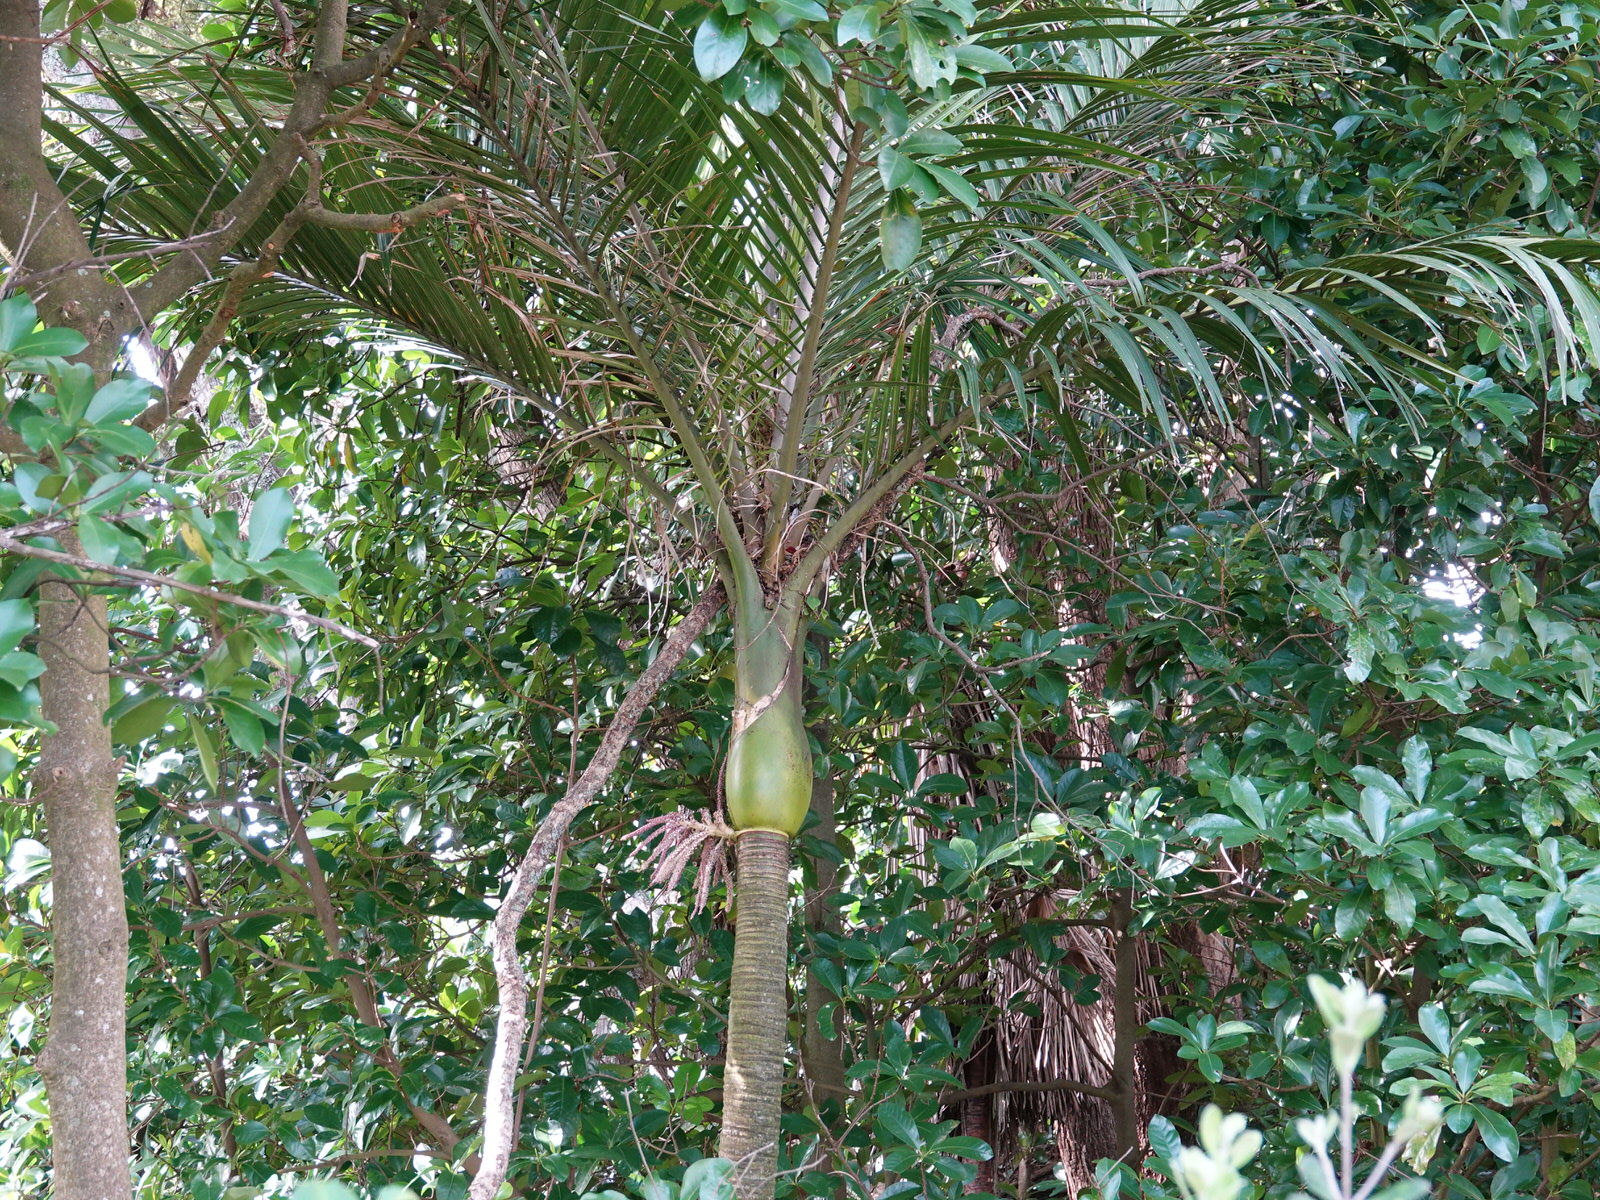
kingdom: Plantae
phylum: Tracheophyta
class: Liliopsida
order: Arecales
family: Arecaceae
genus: Rhopalostylis
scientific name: Rhopalostylis sapida
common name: Feather-duster palm
